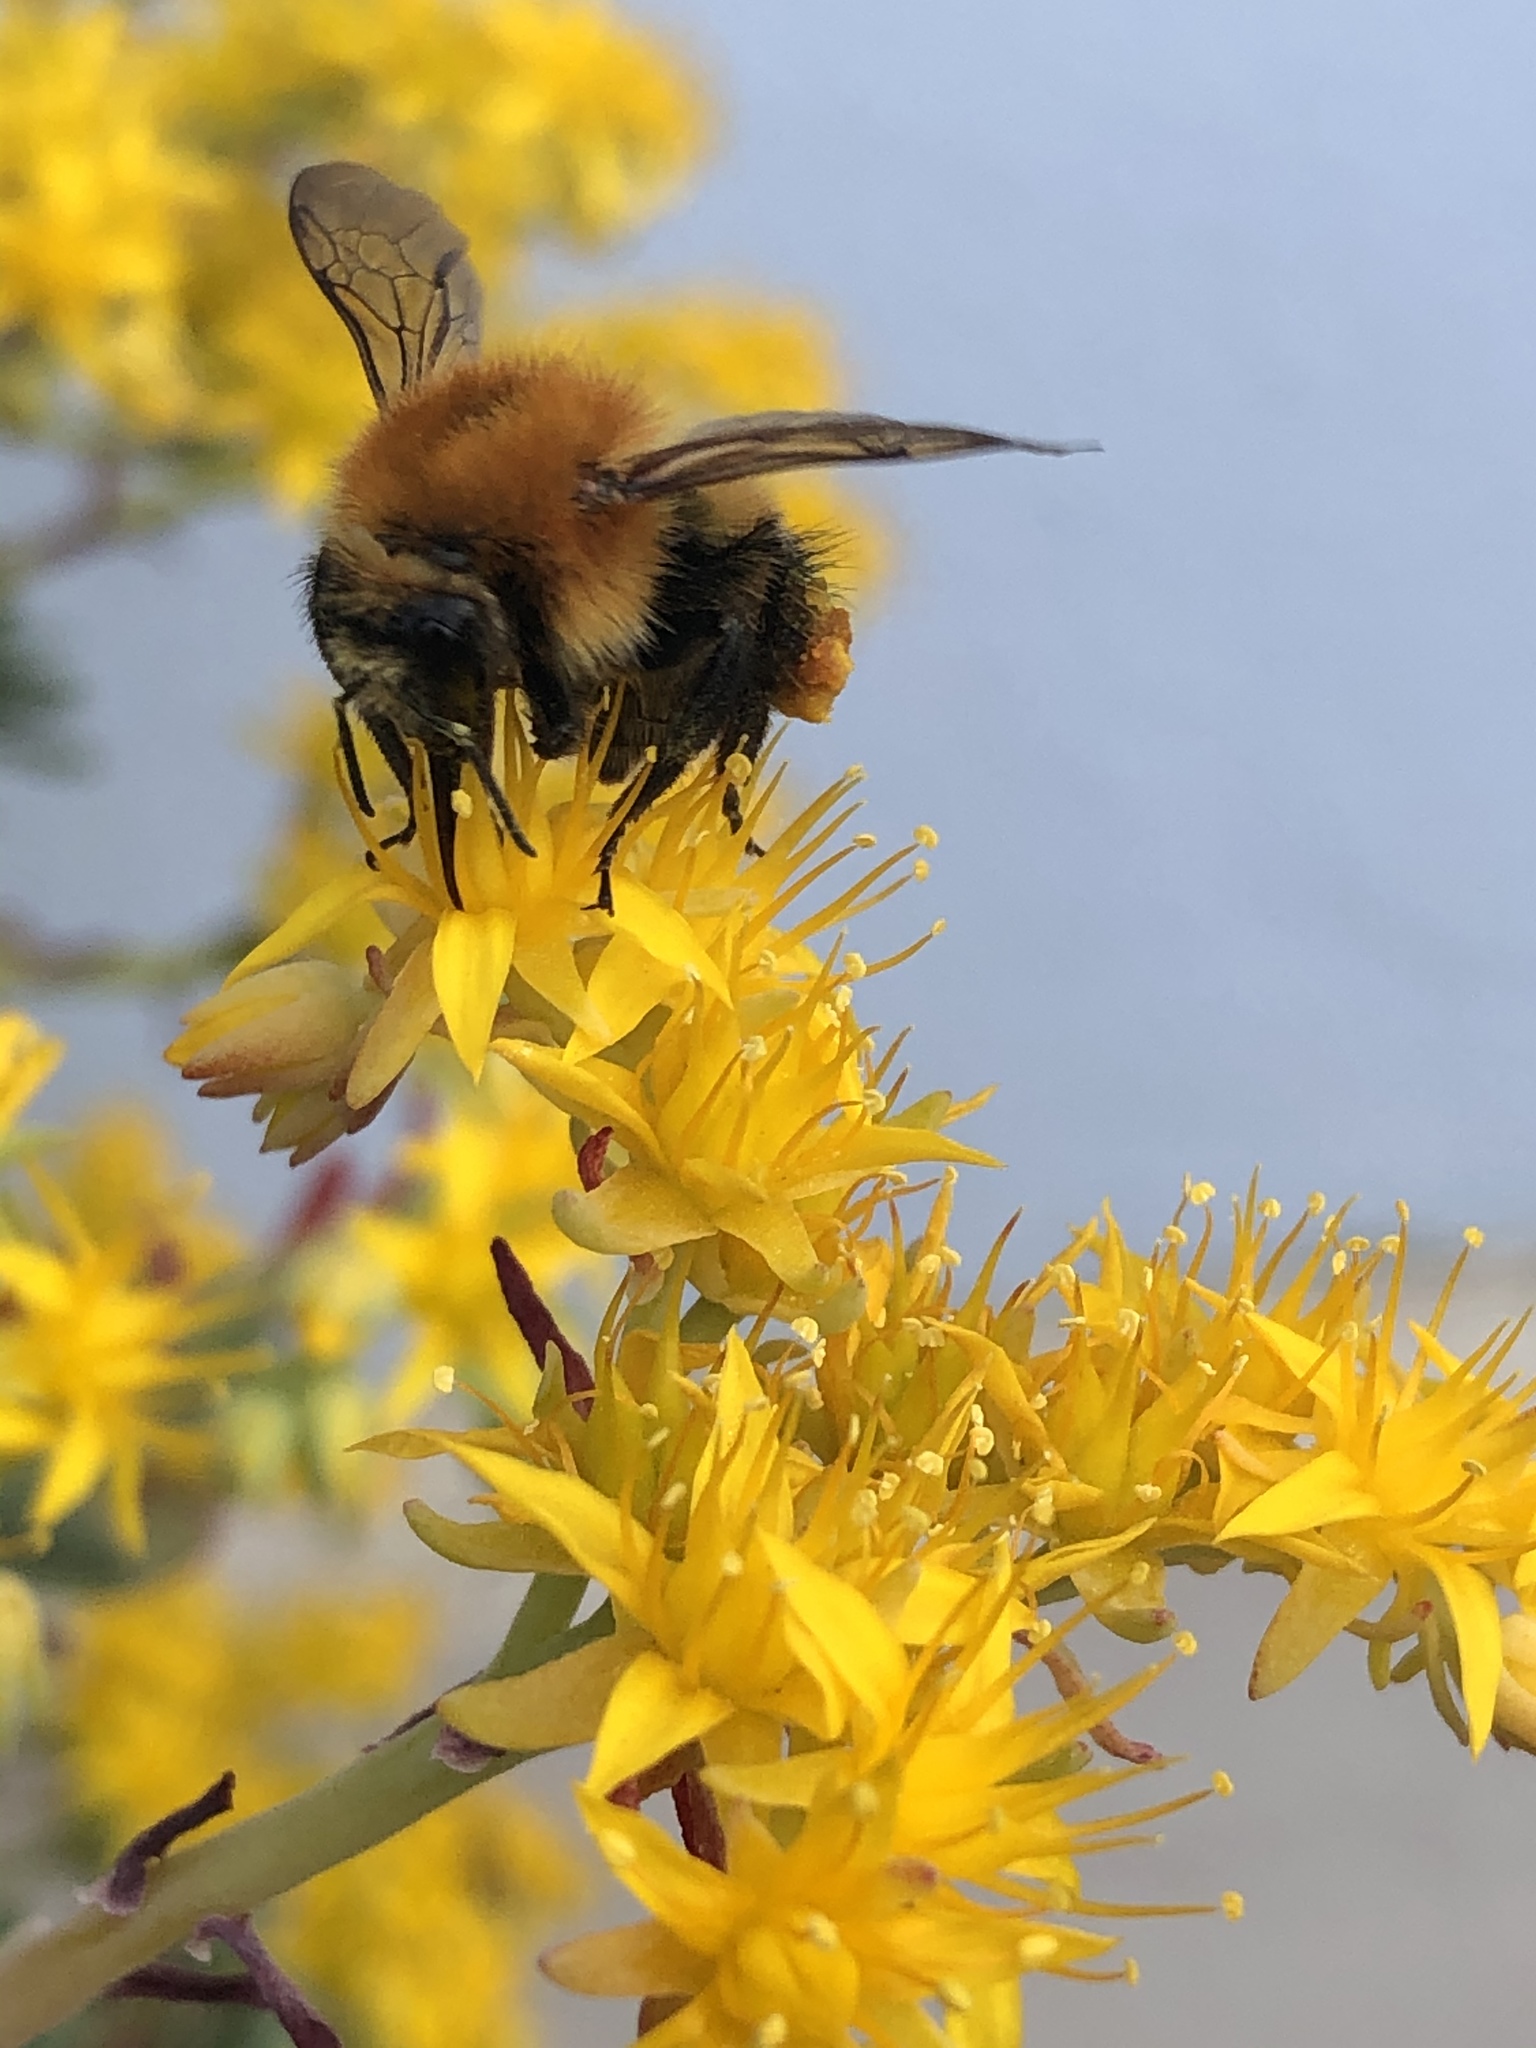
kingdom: Animalia
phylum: Arthropoda
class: Insecta
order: Hymenoptera
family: Apidae
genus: Bombus
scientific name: Bombus pascuorum
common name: Common carder bee
